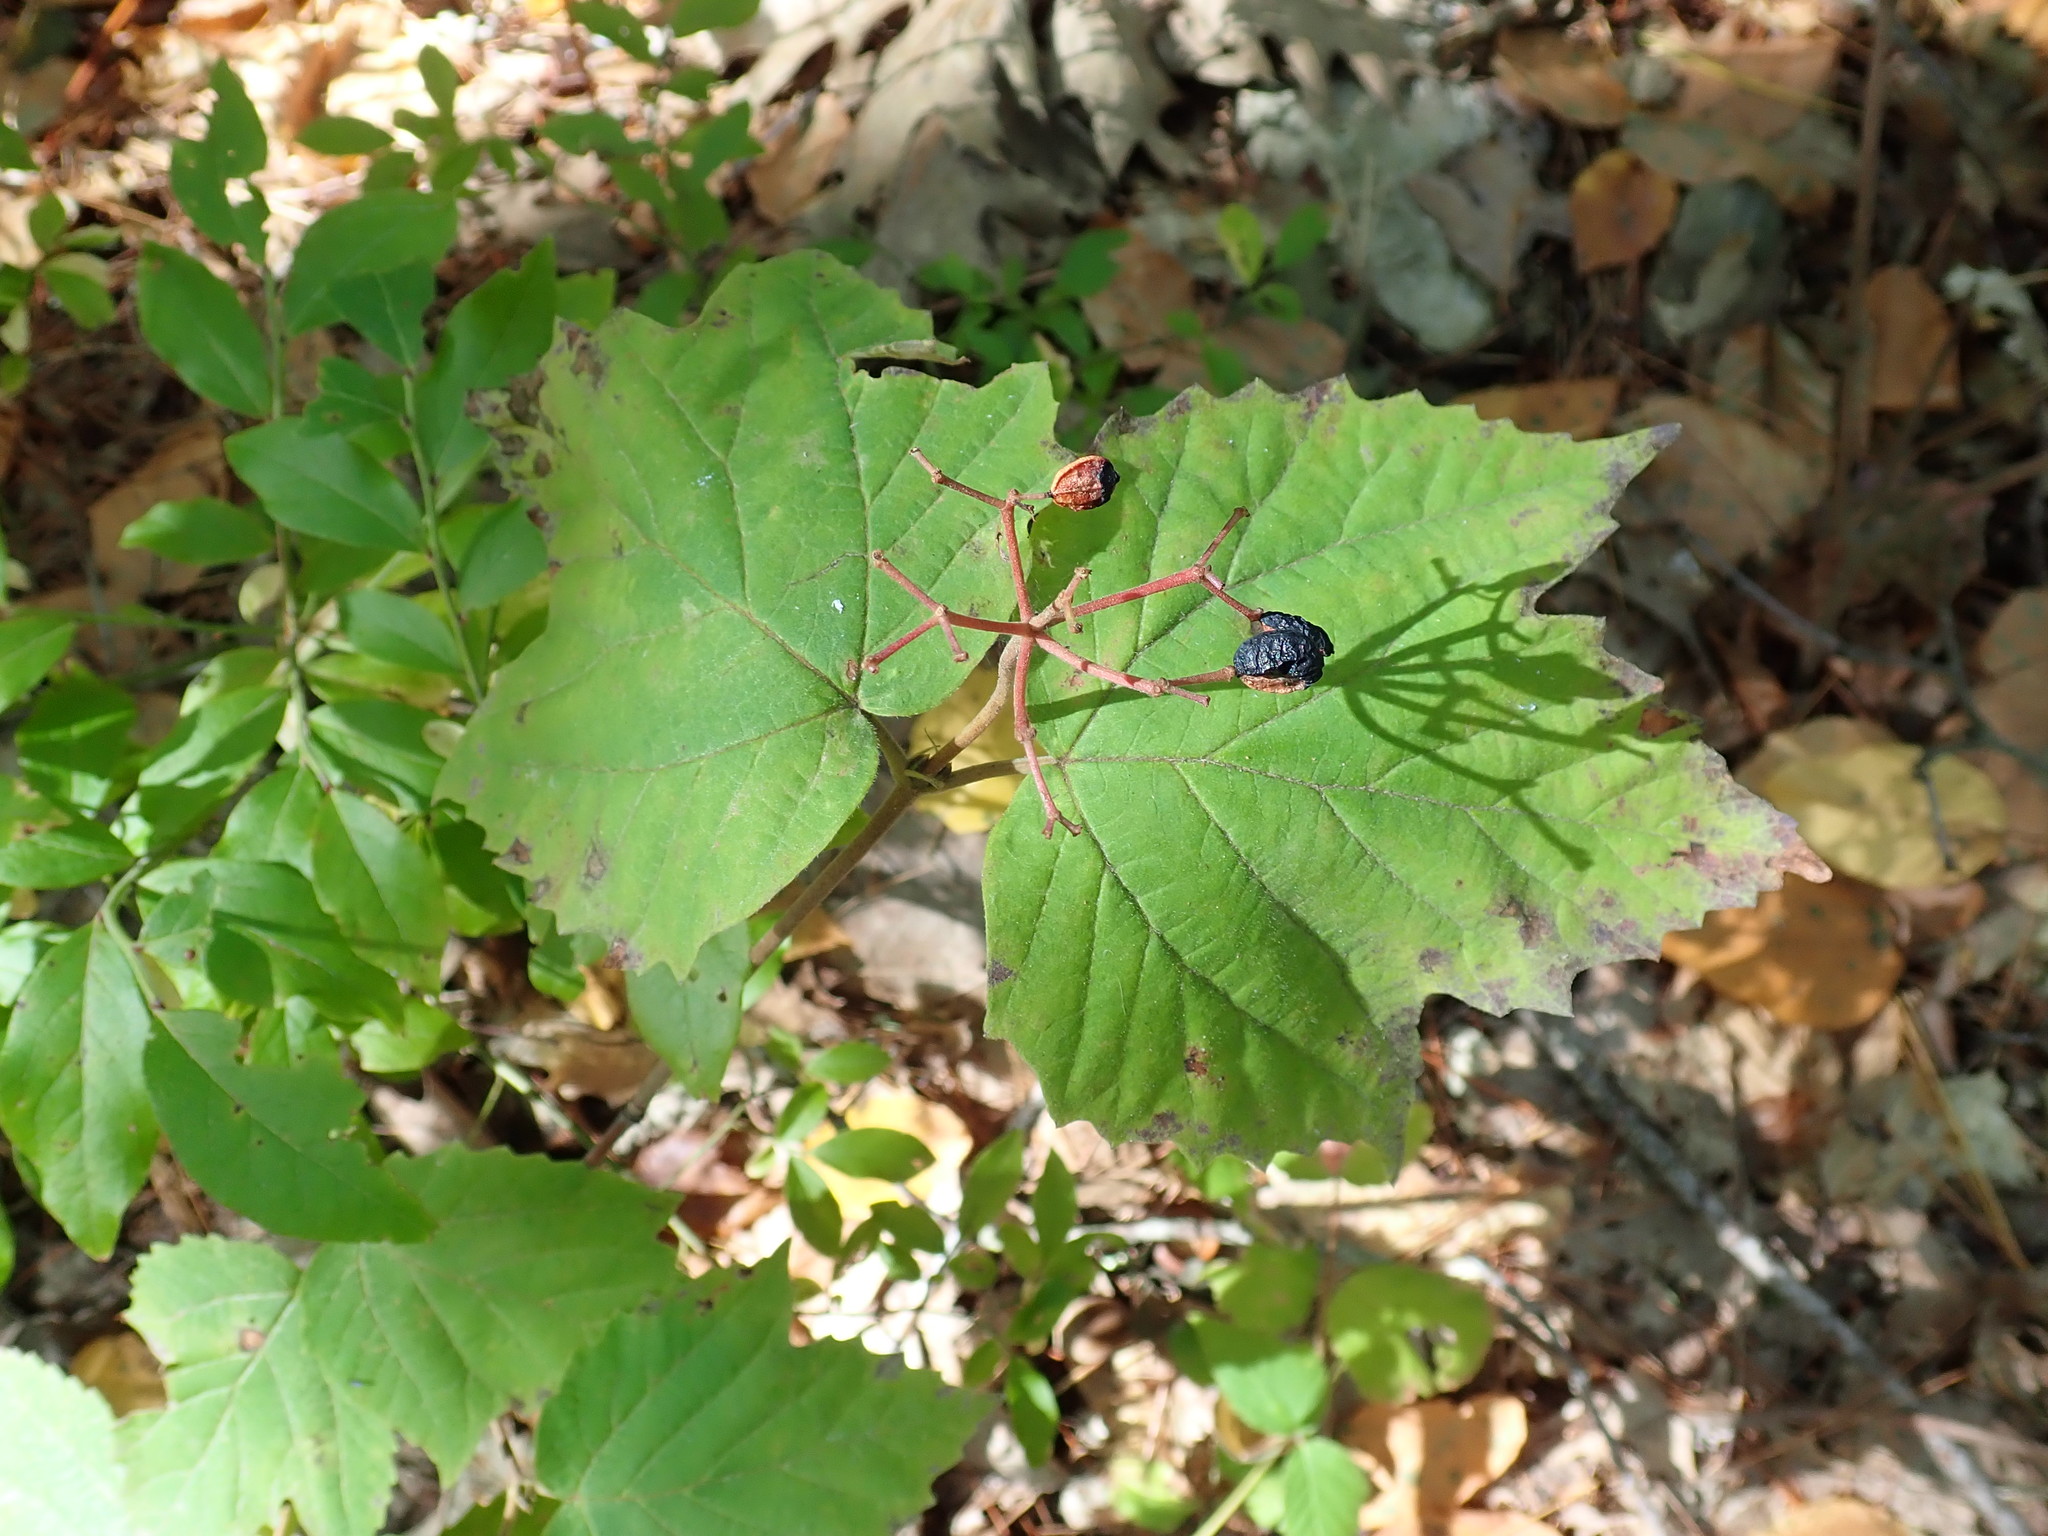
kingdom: Plantae
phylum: Tracheophyta
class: Magnoliopsida
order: Dipsacales
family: Viburnaceae
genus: Viburnum
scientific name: Viburnum acerifolium
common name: Dockmackie
